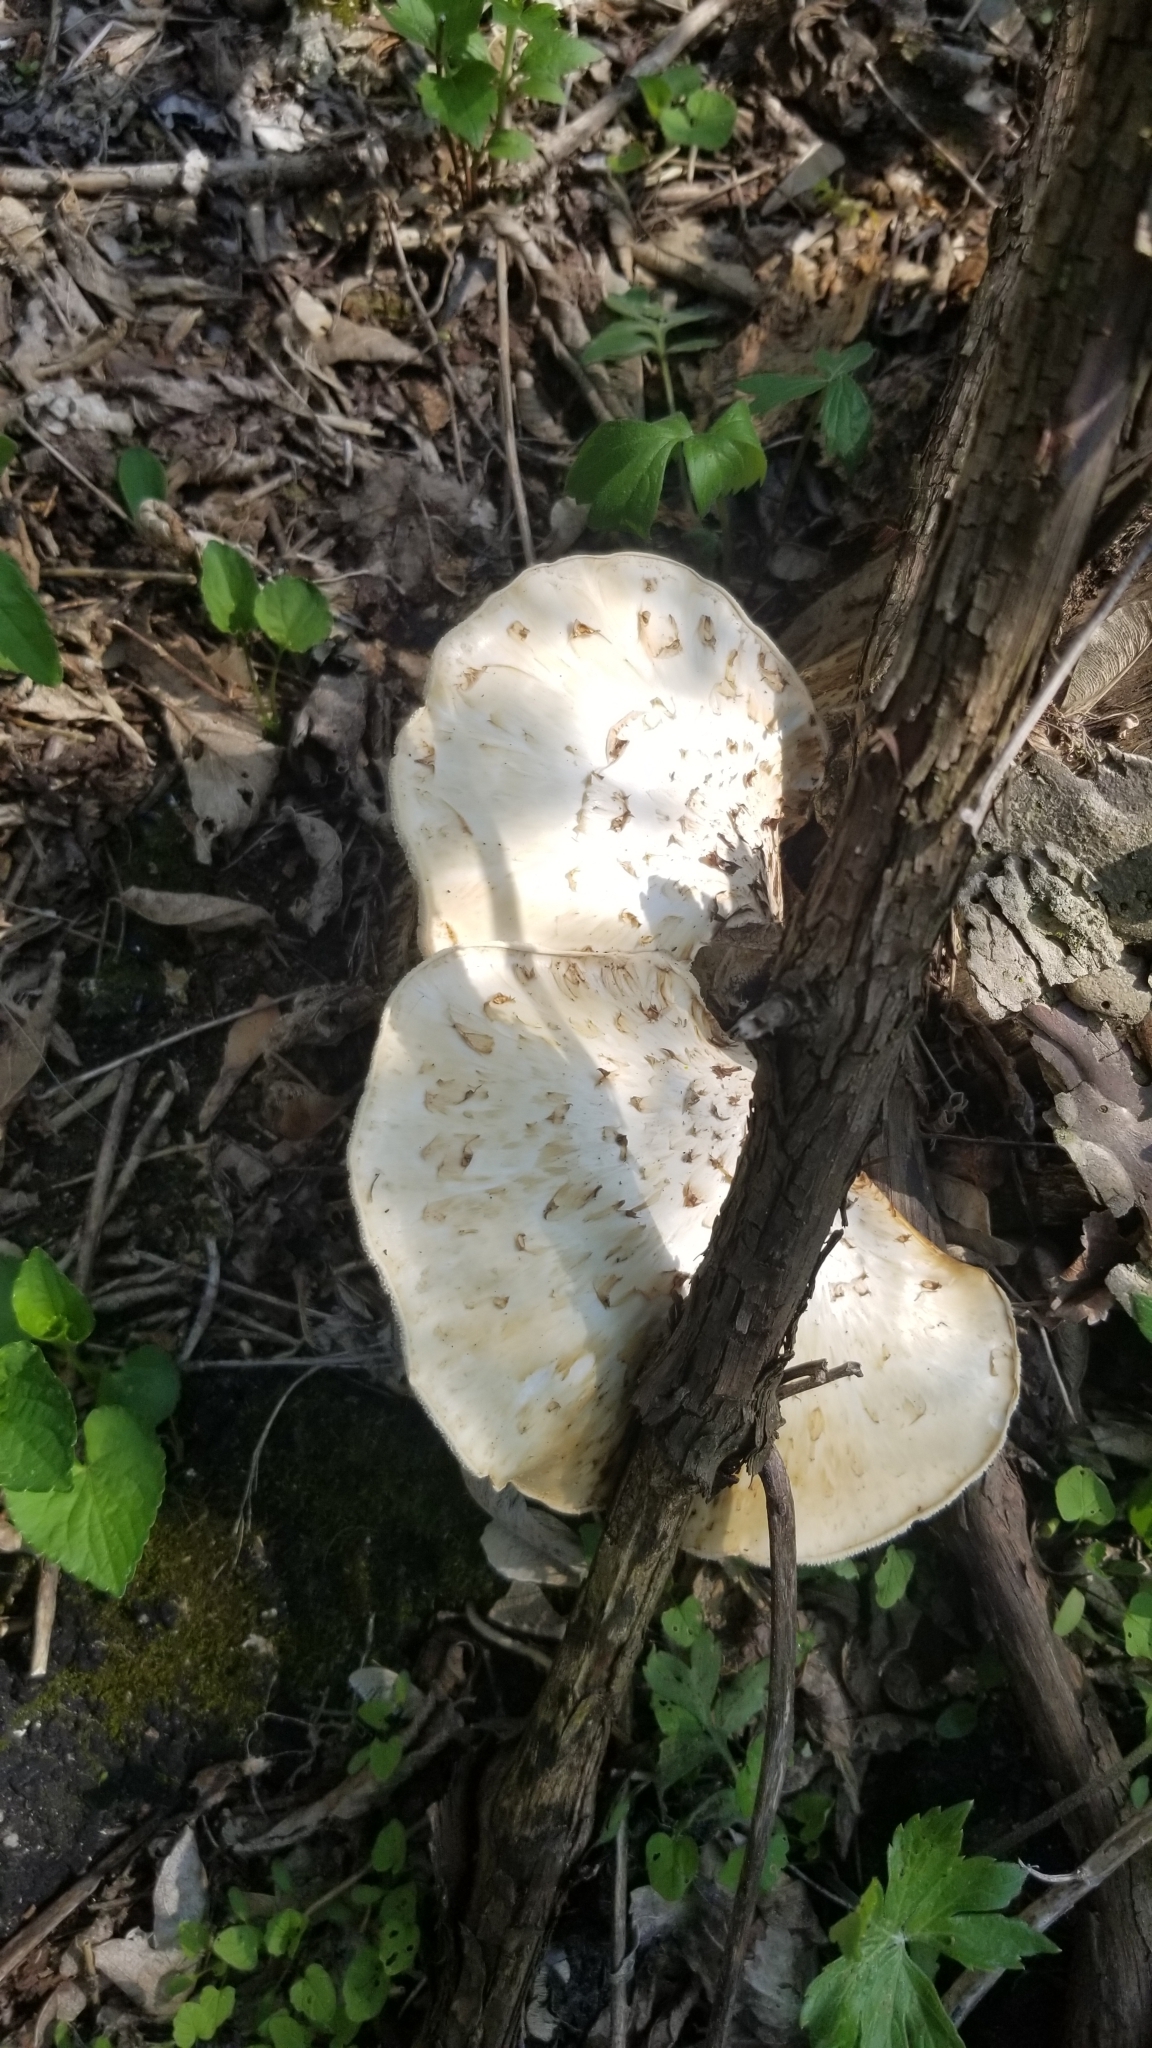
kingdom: Fungi
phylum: Basidiomycota
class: Agaricomycetes
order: Polyporales
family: Polyporaceae
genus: Cerioporus
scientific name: Cerioporus squamosus
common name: Dryad's saddle
